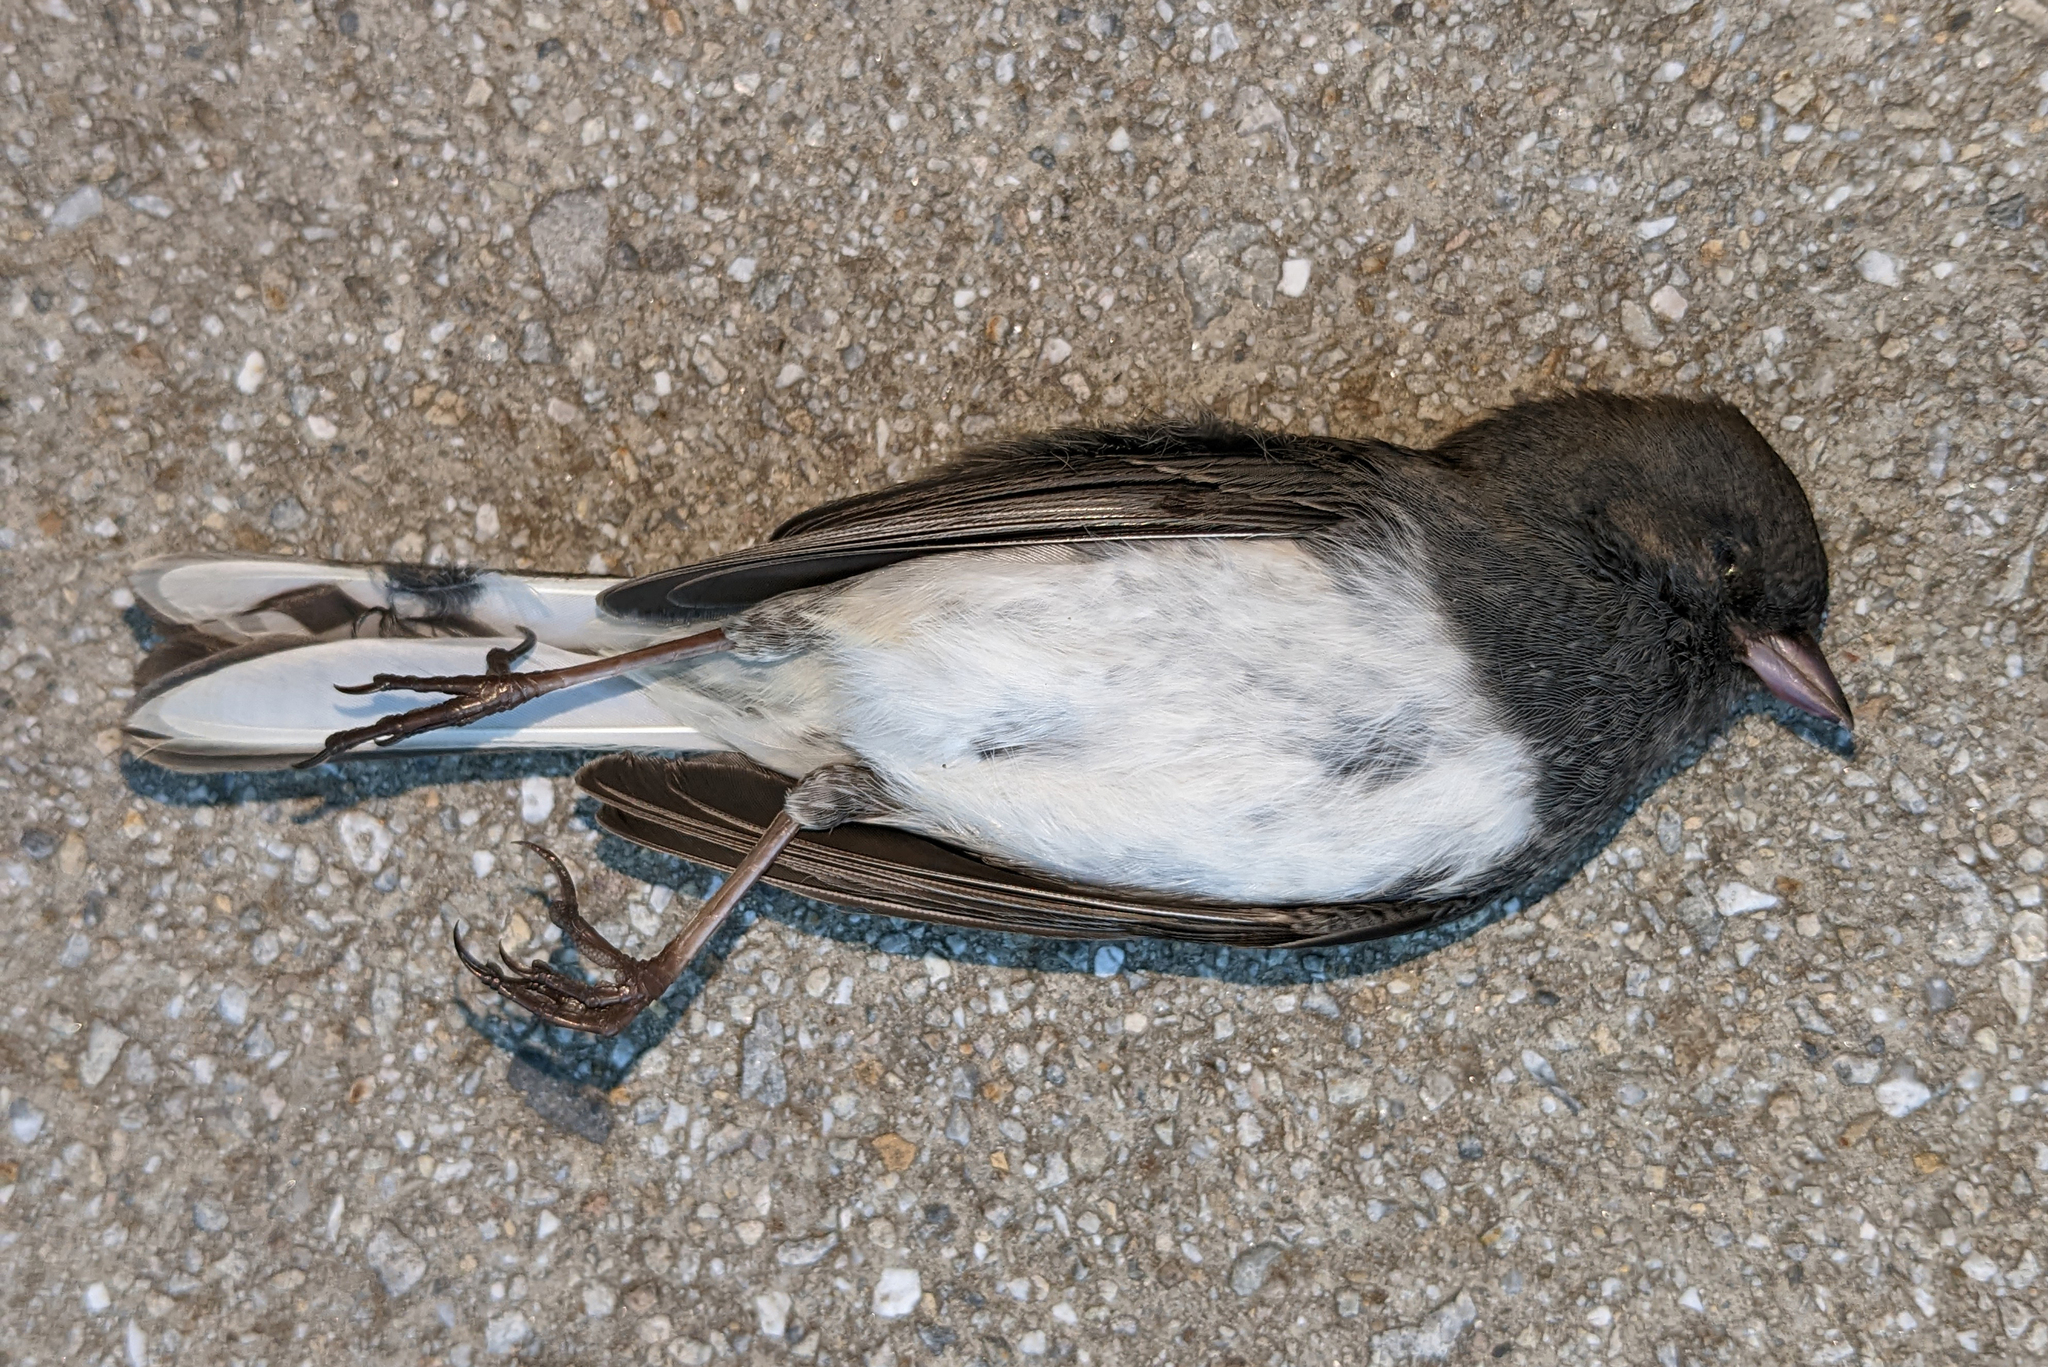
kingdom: Animalia
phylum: Chordata
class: Aves
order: Passeriformes
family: Passerellidae
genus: Junco
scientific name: Junco hyemalis
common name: Dark-eyed junco
